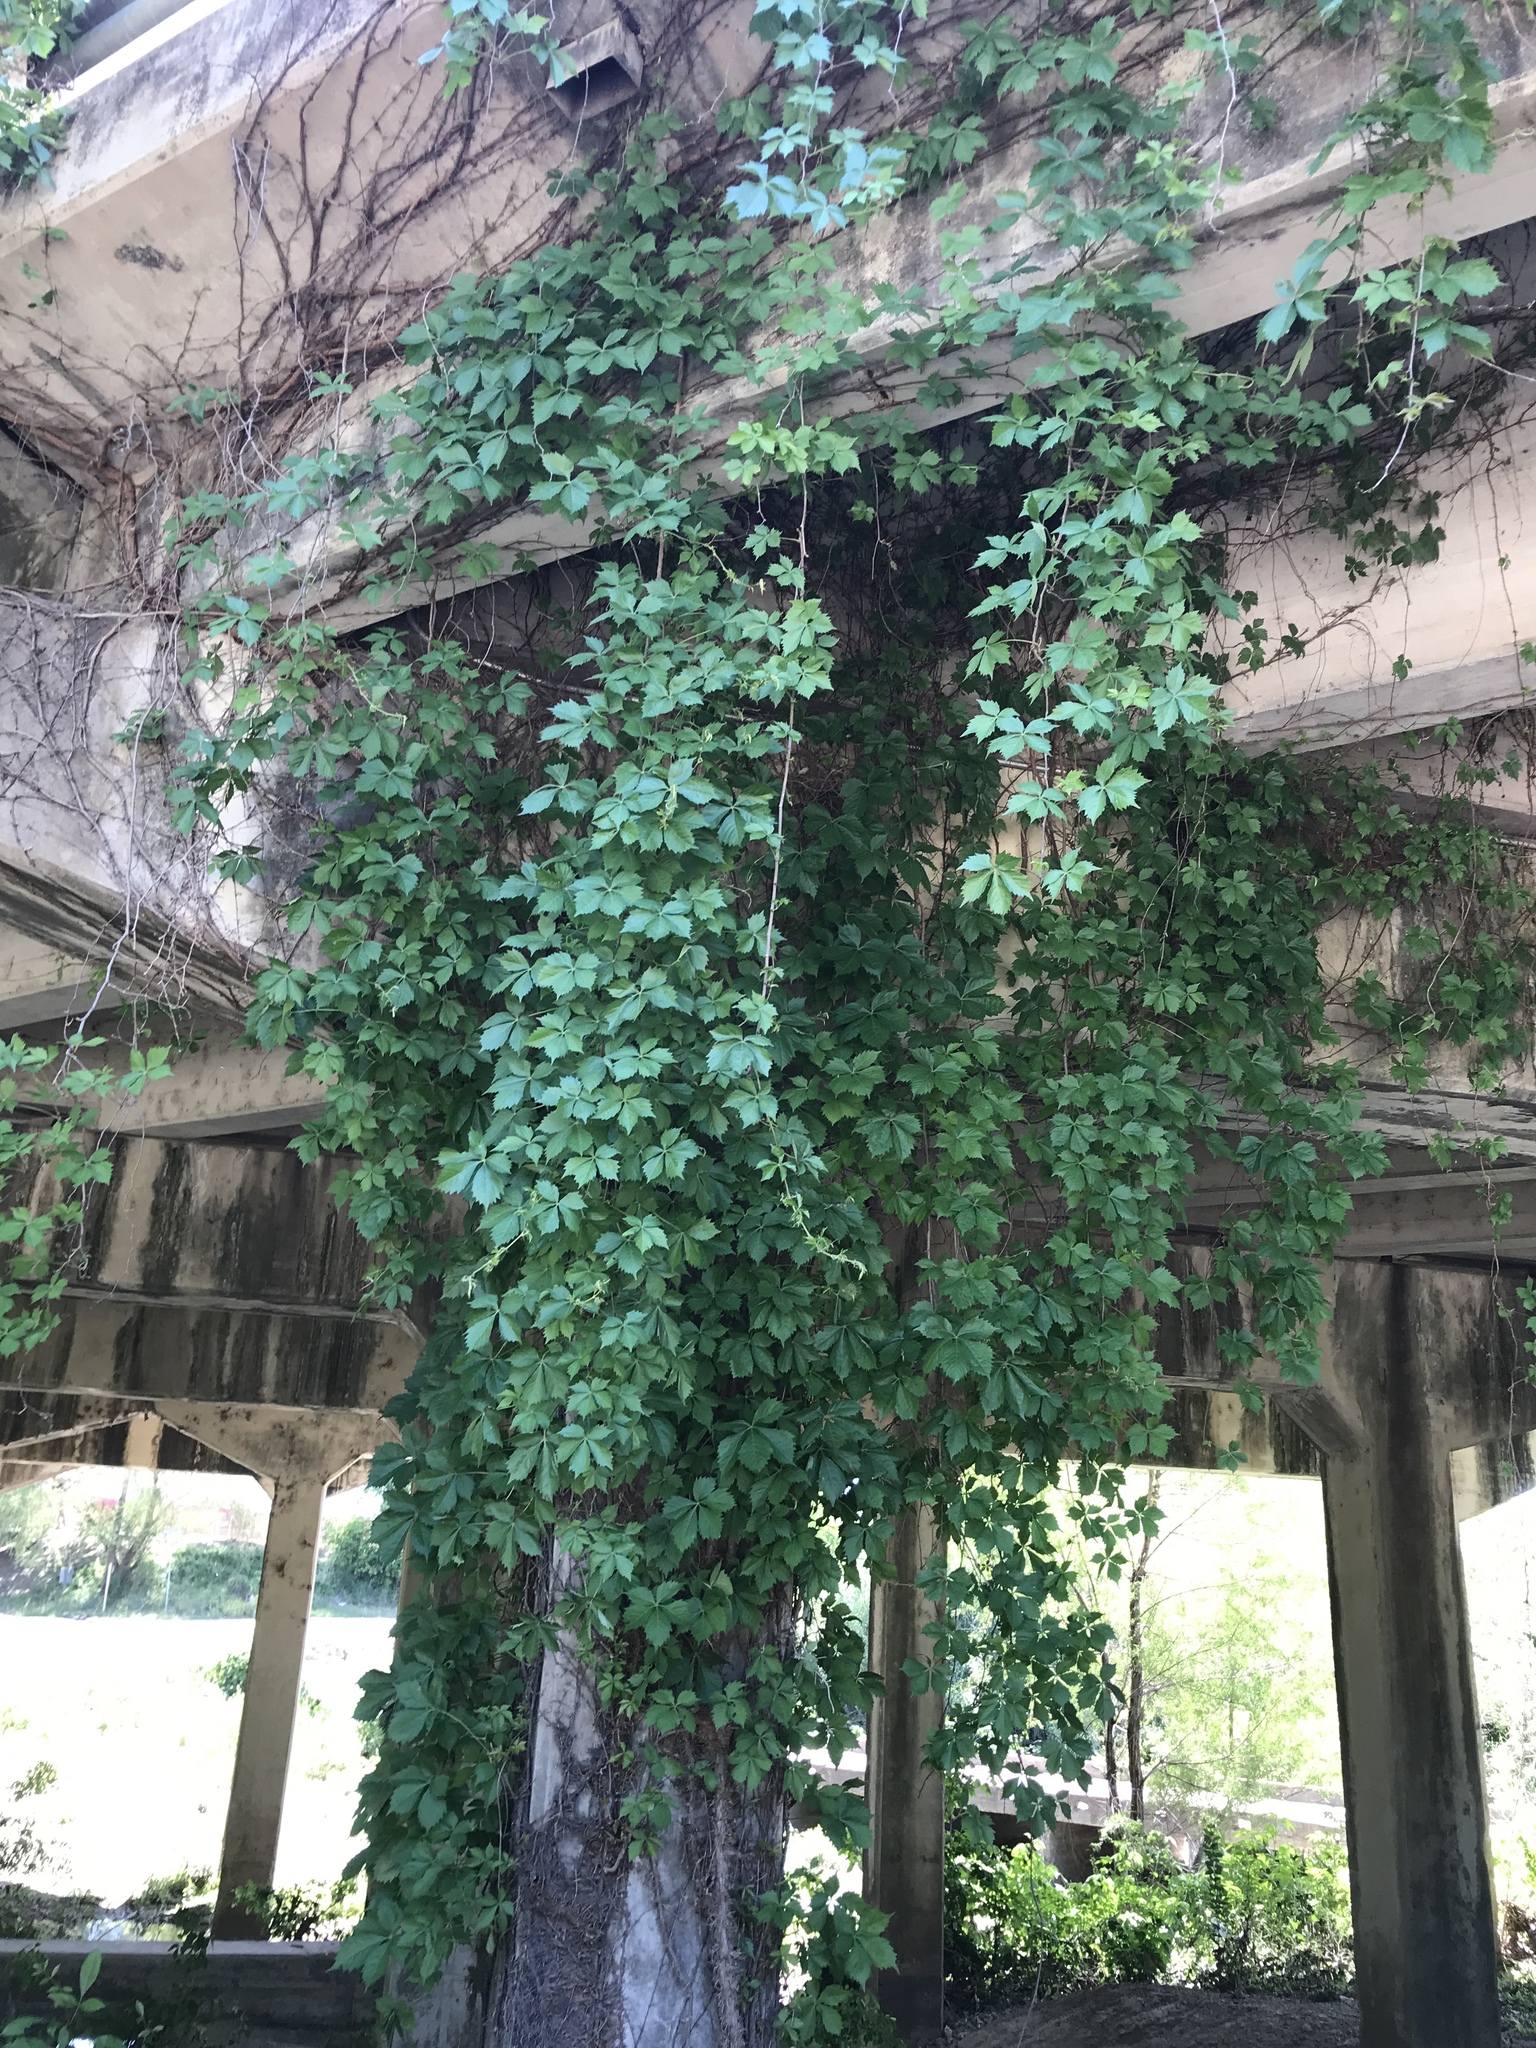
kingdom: Plantae
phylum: Tracheophyta
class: Magnoliopsida
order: Vitales
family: Vitaceae
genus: Parthenocissus
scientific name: Parthenocissus quinquefolia
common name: Virginia-creeper
